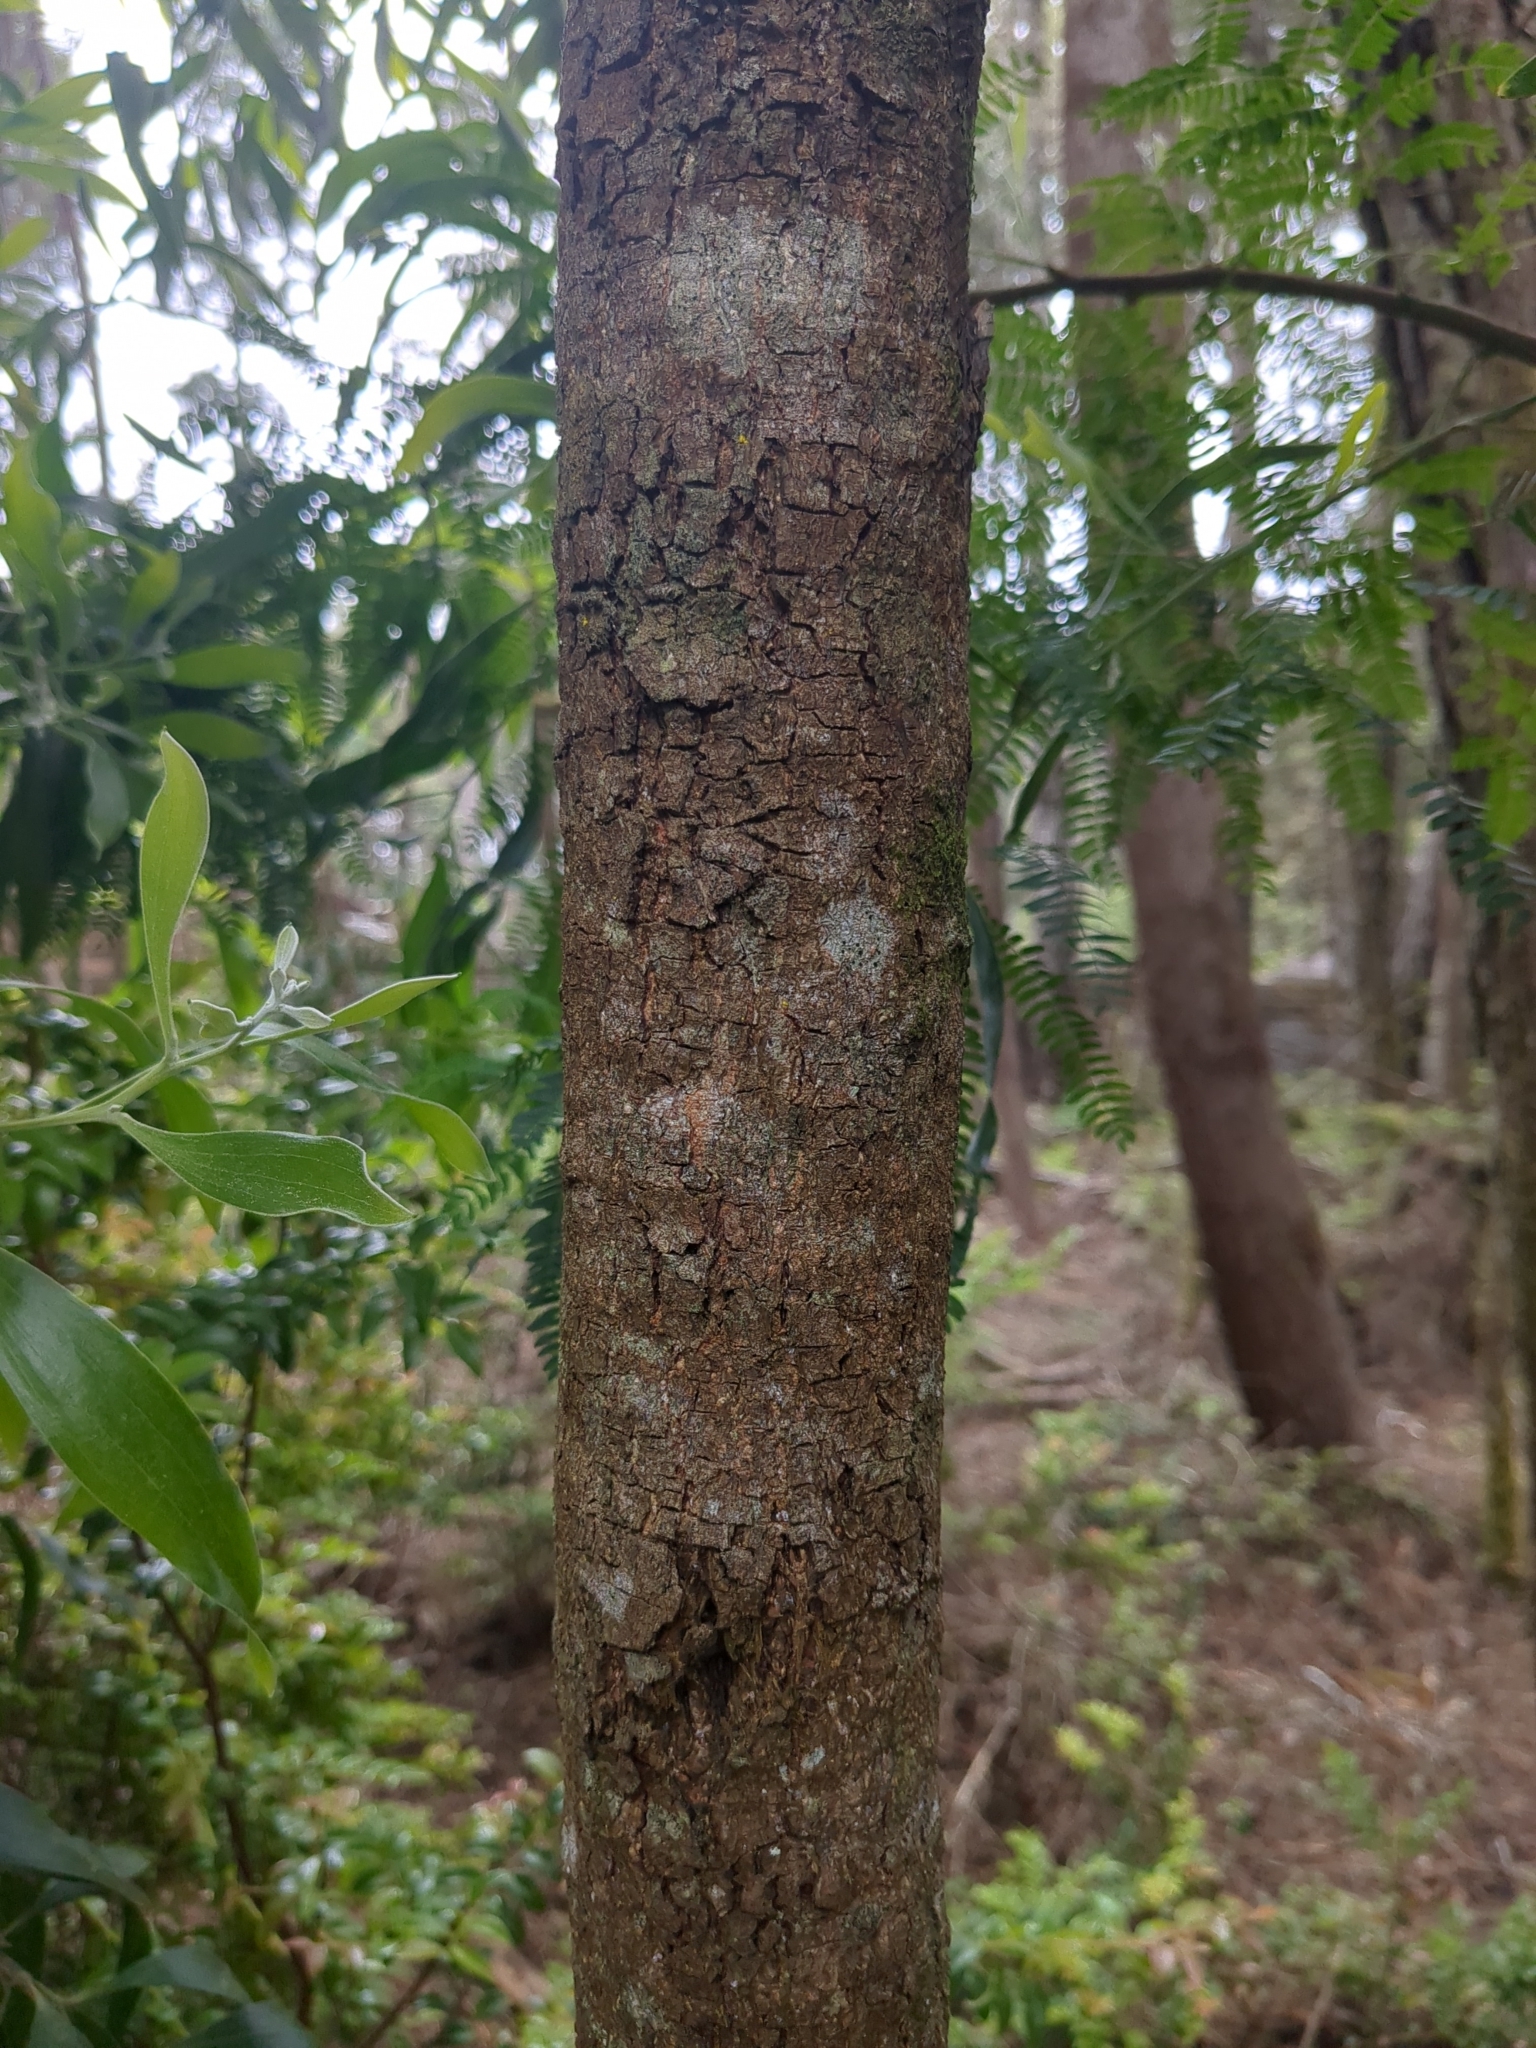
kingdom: Plantae
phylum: Tracheophyta
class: Magnoliopsida
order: Fabales
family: Fabaceae
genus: Acacia
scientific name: Acacia melanoxylon
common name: Blackwood
